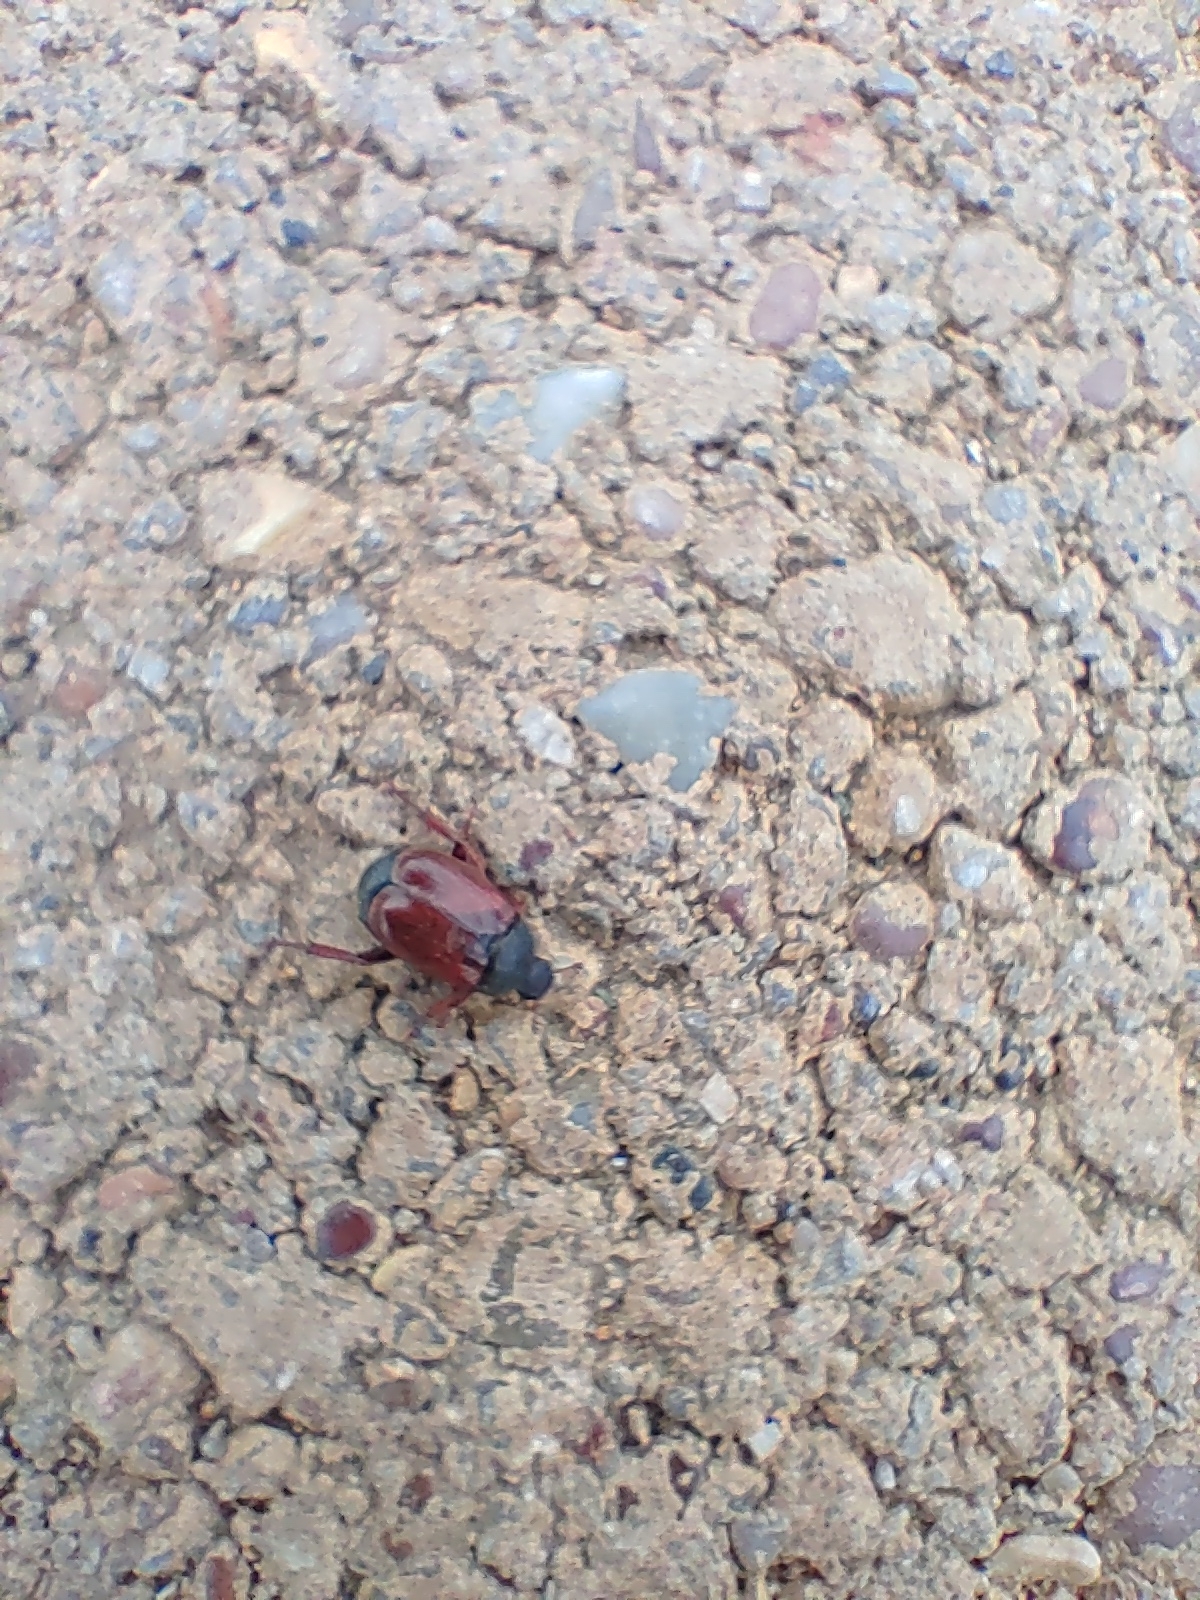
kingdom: Animalia
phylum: Arthropoda
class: Insecta
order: Coleoptera
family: Scarabaeidae
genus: Hoplia
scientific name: Hoplia philanthus
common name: Welsh chafer
